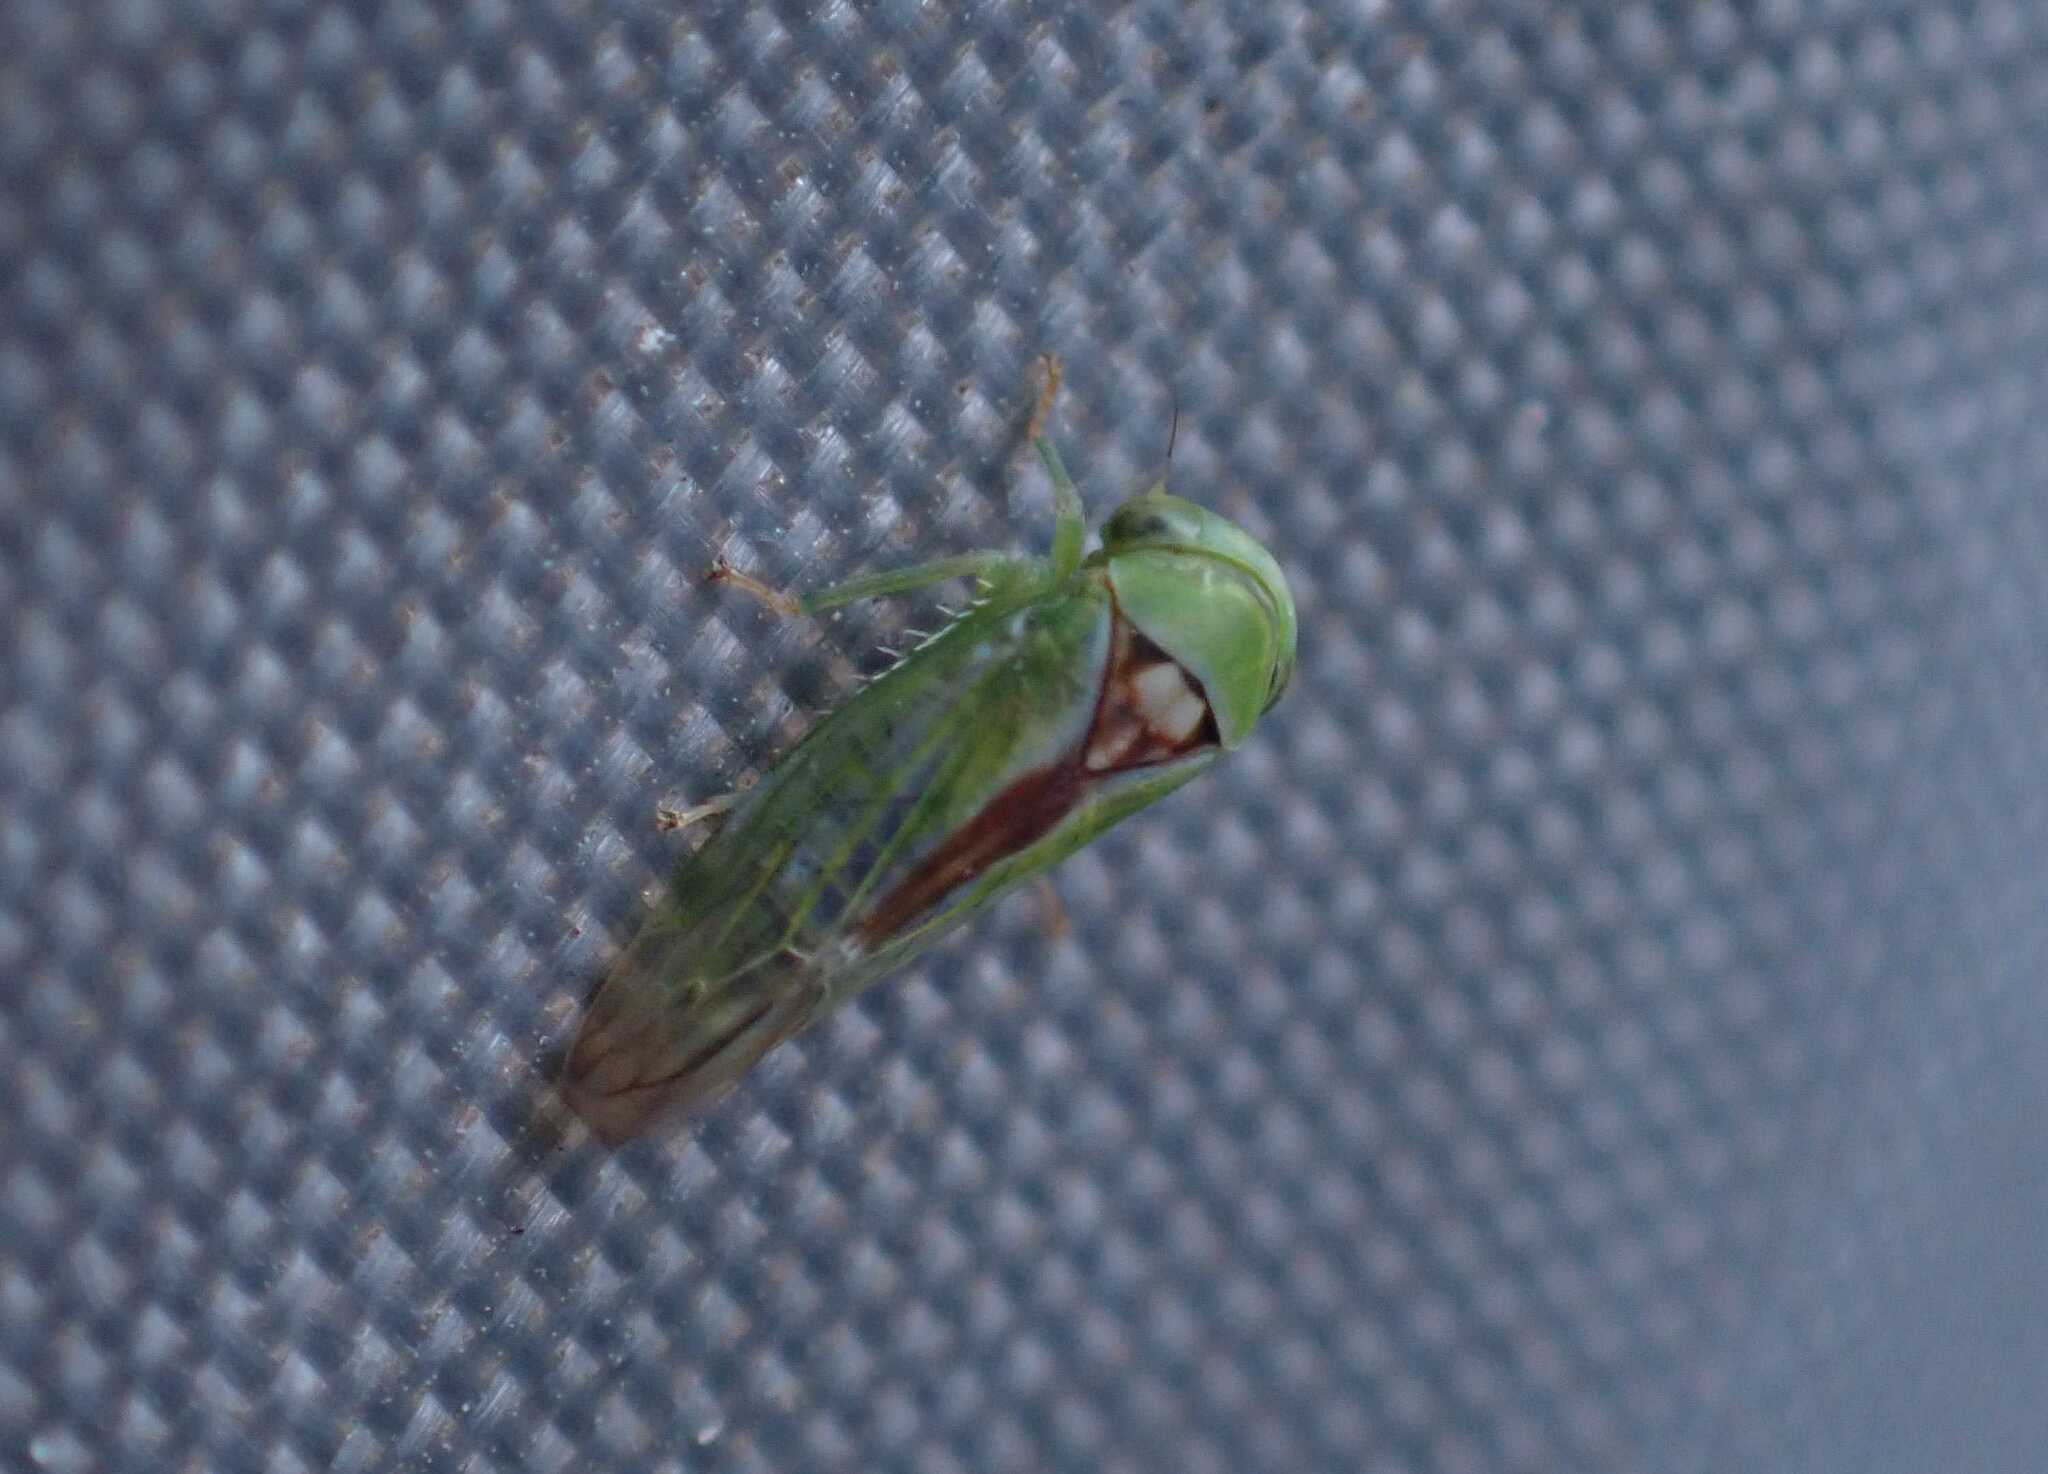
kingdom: Animalia
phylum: Arthropoda
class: Insecta
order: Hemiptera
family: Cicadellidae
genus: Viridicerus
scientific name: Viridicerus ustulatus
